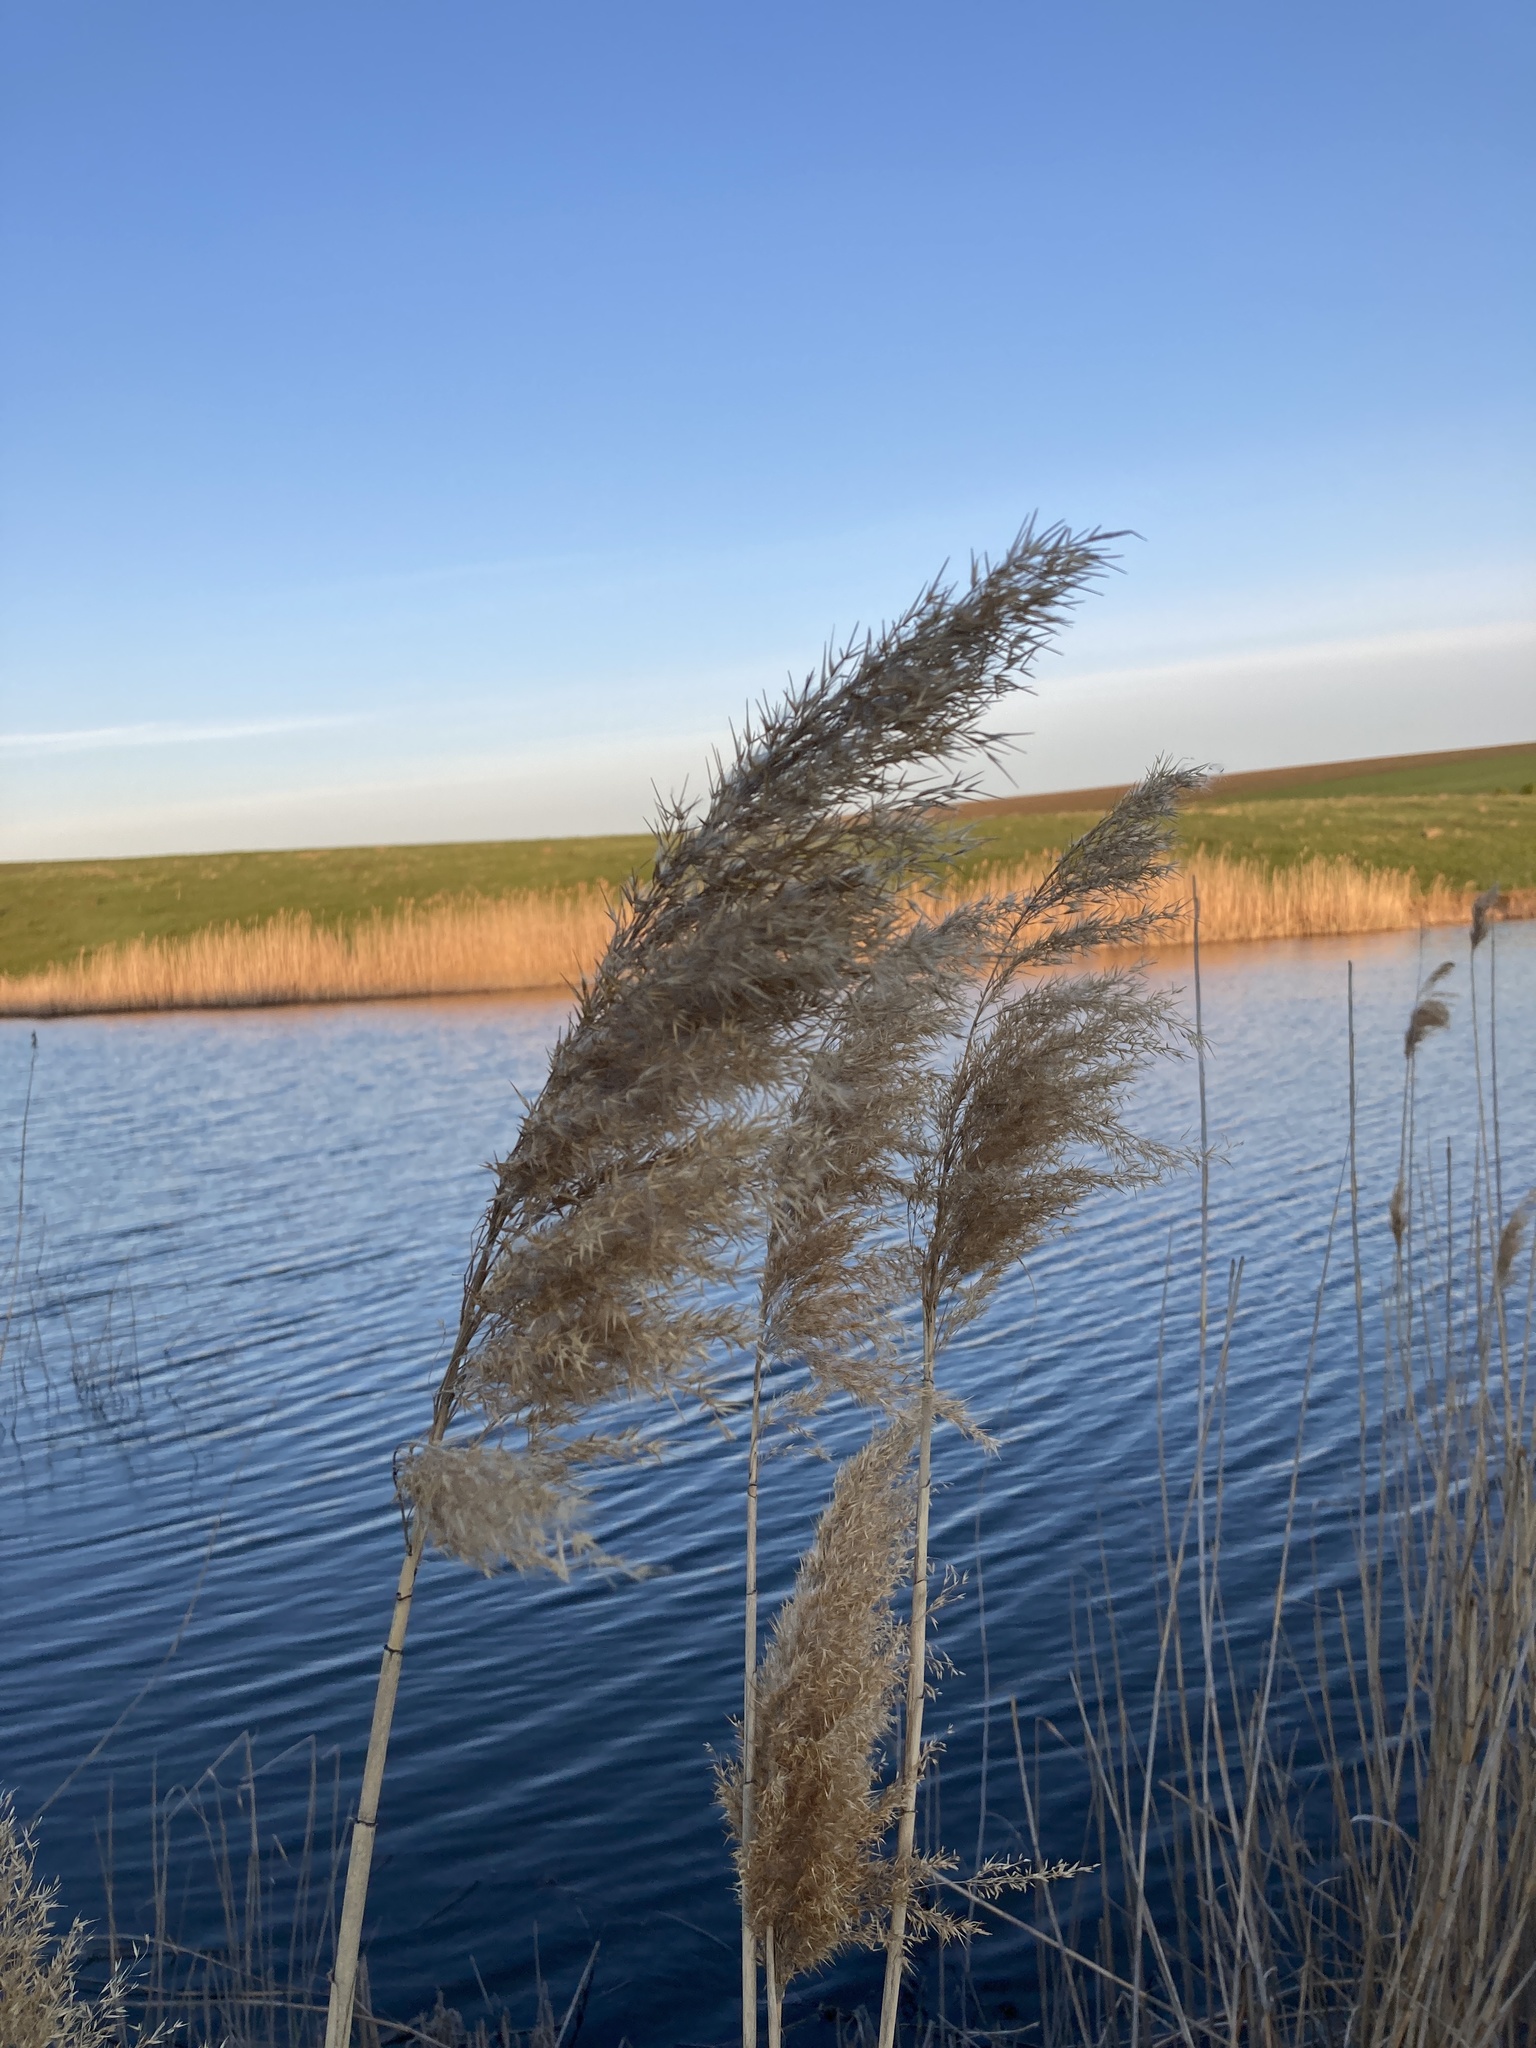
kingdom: Plantae
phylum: Tracheophyta
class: Liliopsida
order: Poales
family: Poaceae
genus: Phragmites
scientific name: Phragmites australis
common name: Common reed
